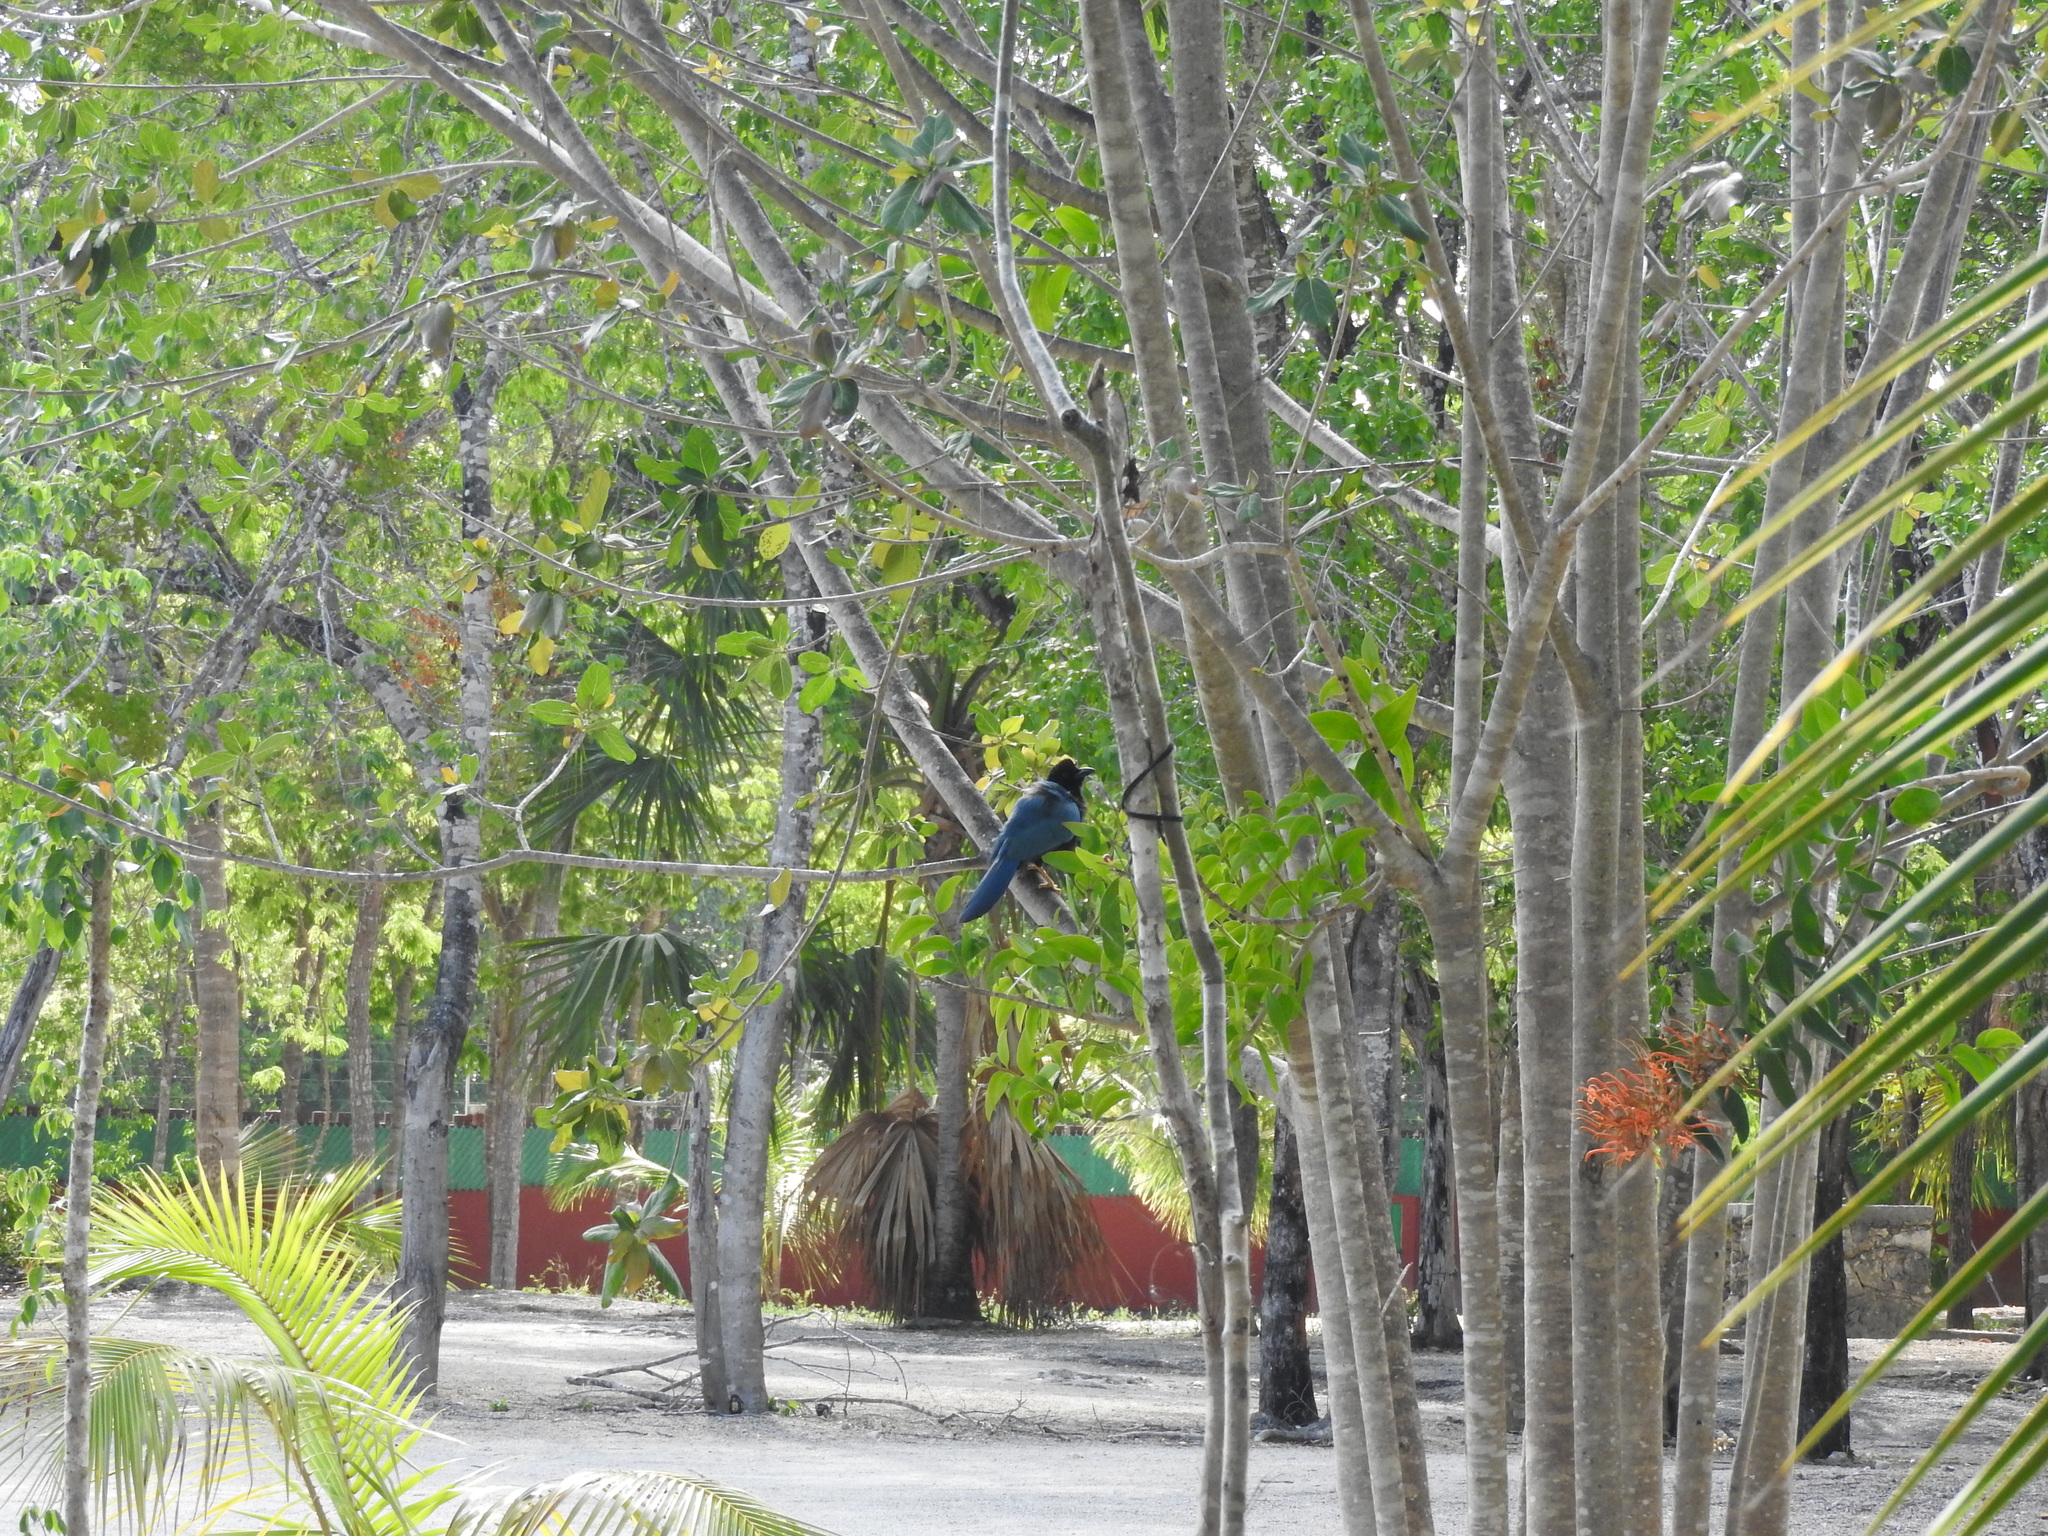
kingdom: Animalia
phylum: Chordata
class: Aves
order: Passeriformes
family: Corvidae
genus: Cyanocorax
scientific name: Cyanocorax yucatanicus
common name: Yucatan jay
